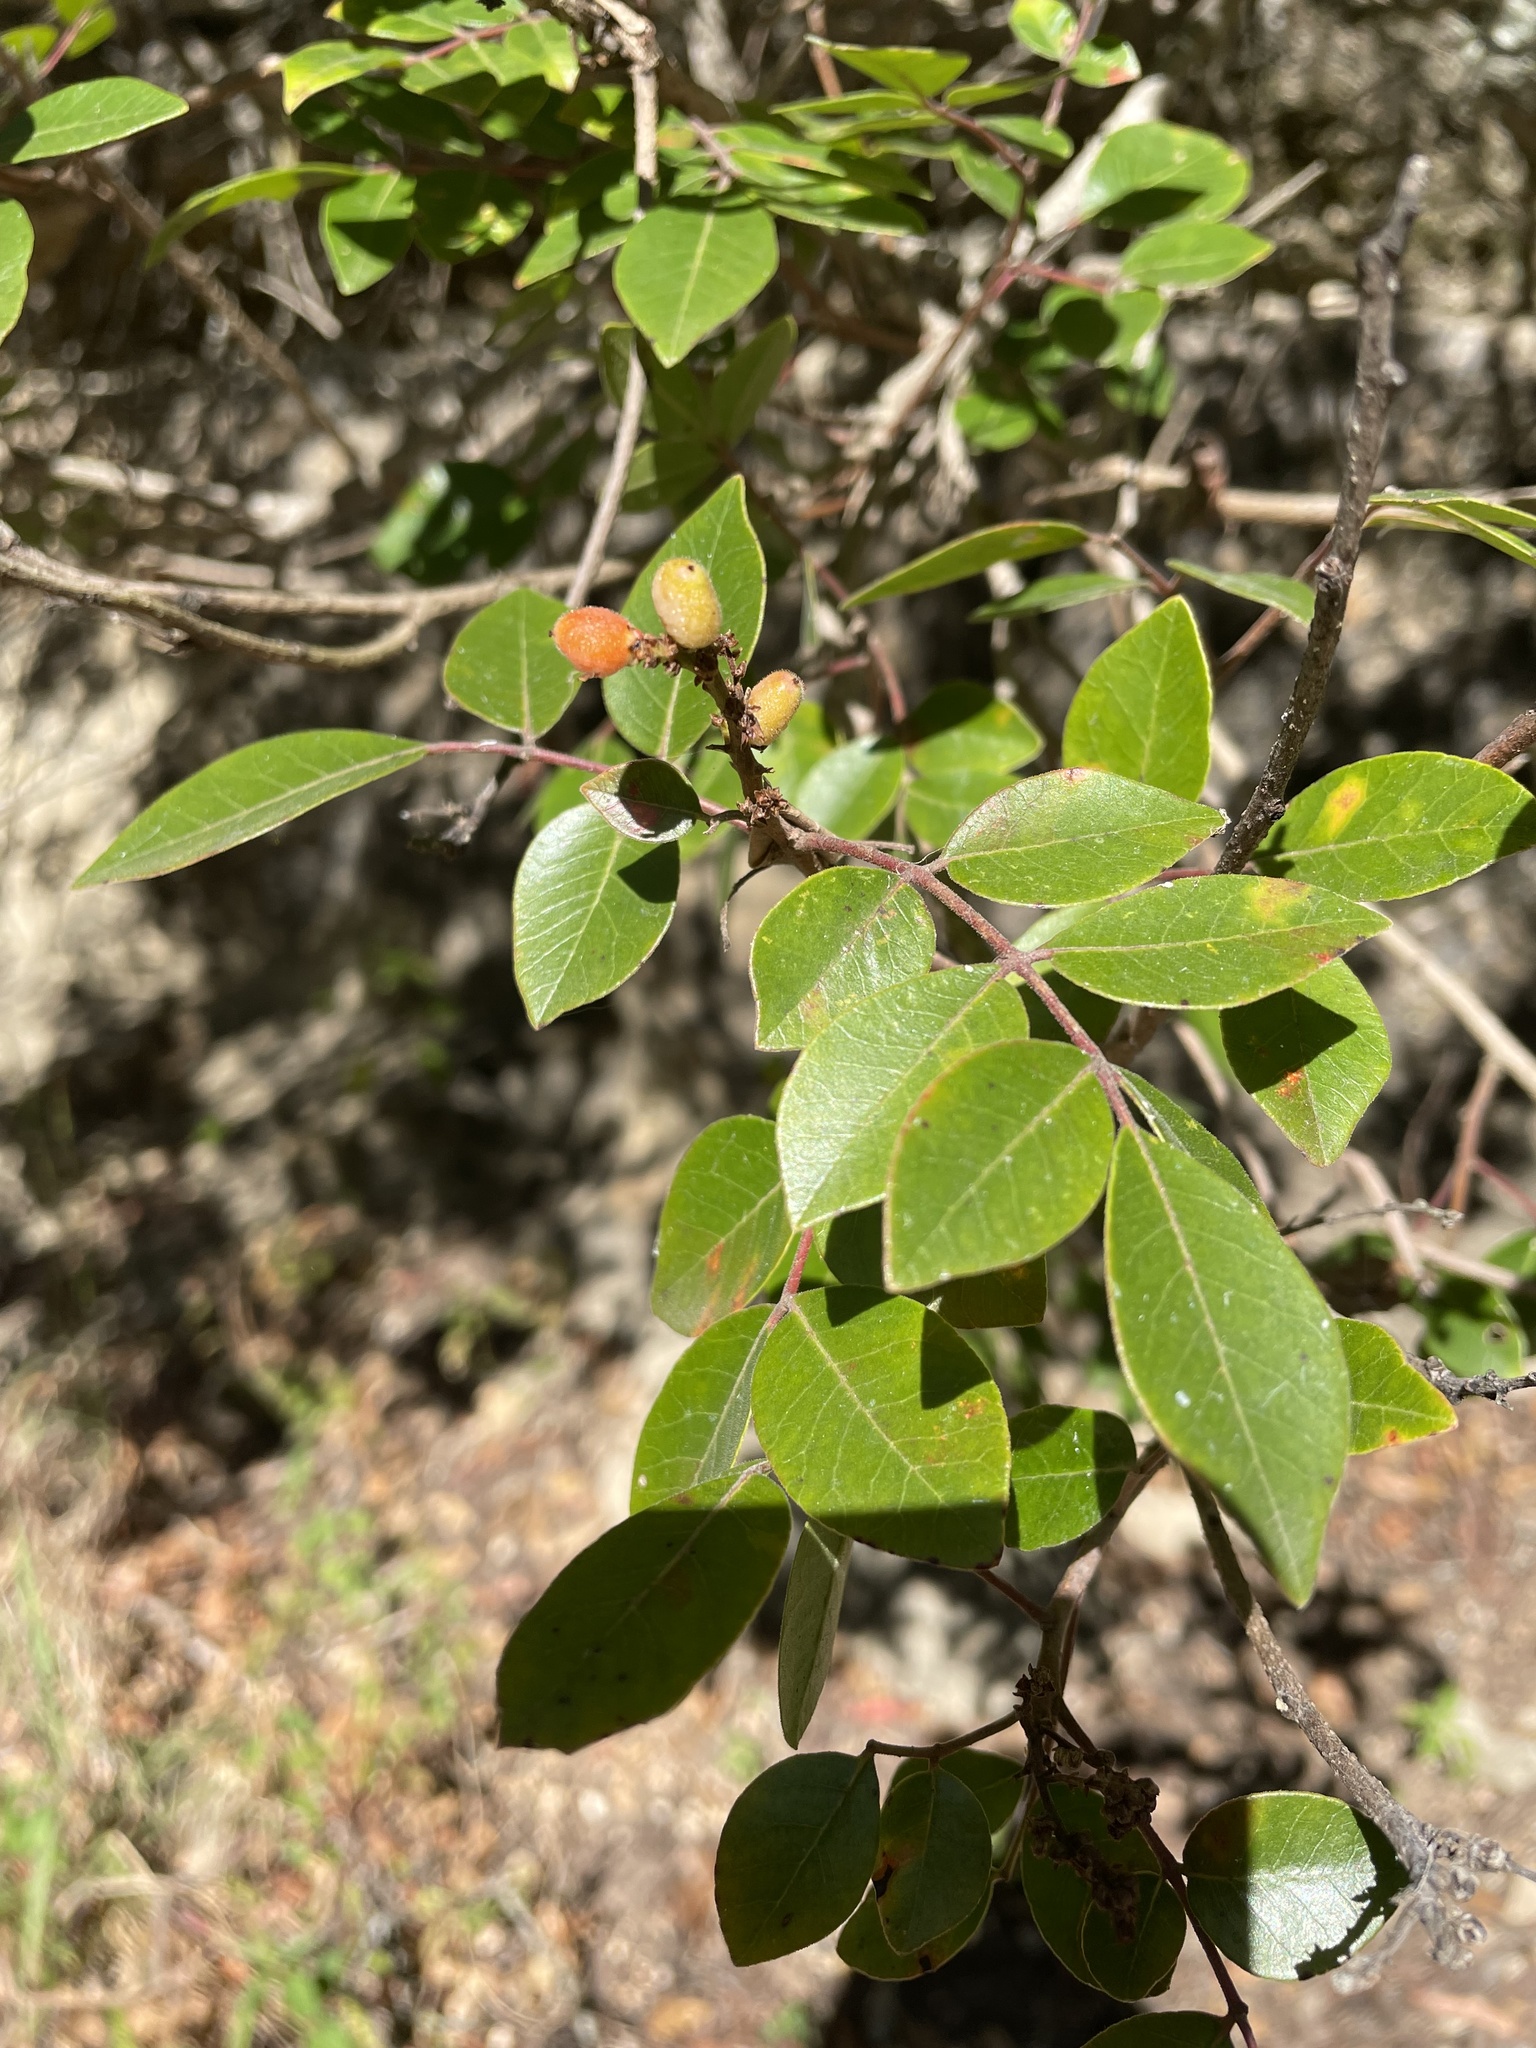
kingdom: Plantae
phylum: Tracheophyta
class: Magnoliopsida
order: Sapindales
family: Anacardiaceae
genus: Rhus
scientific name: Rhus virens
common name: Evergreen sumac
